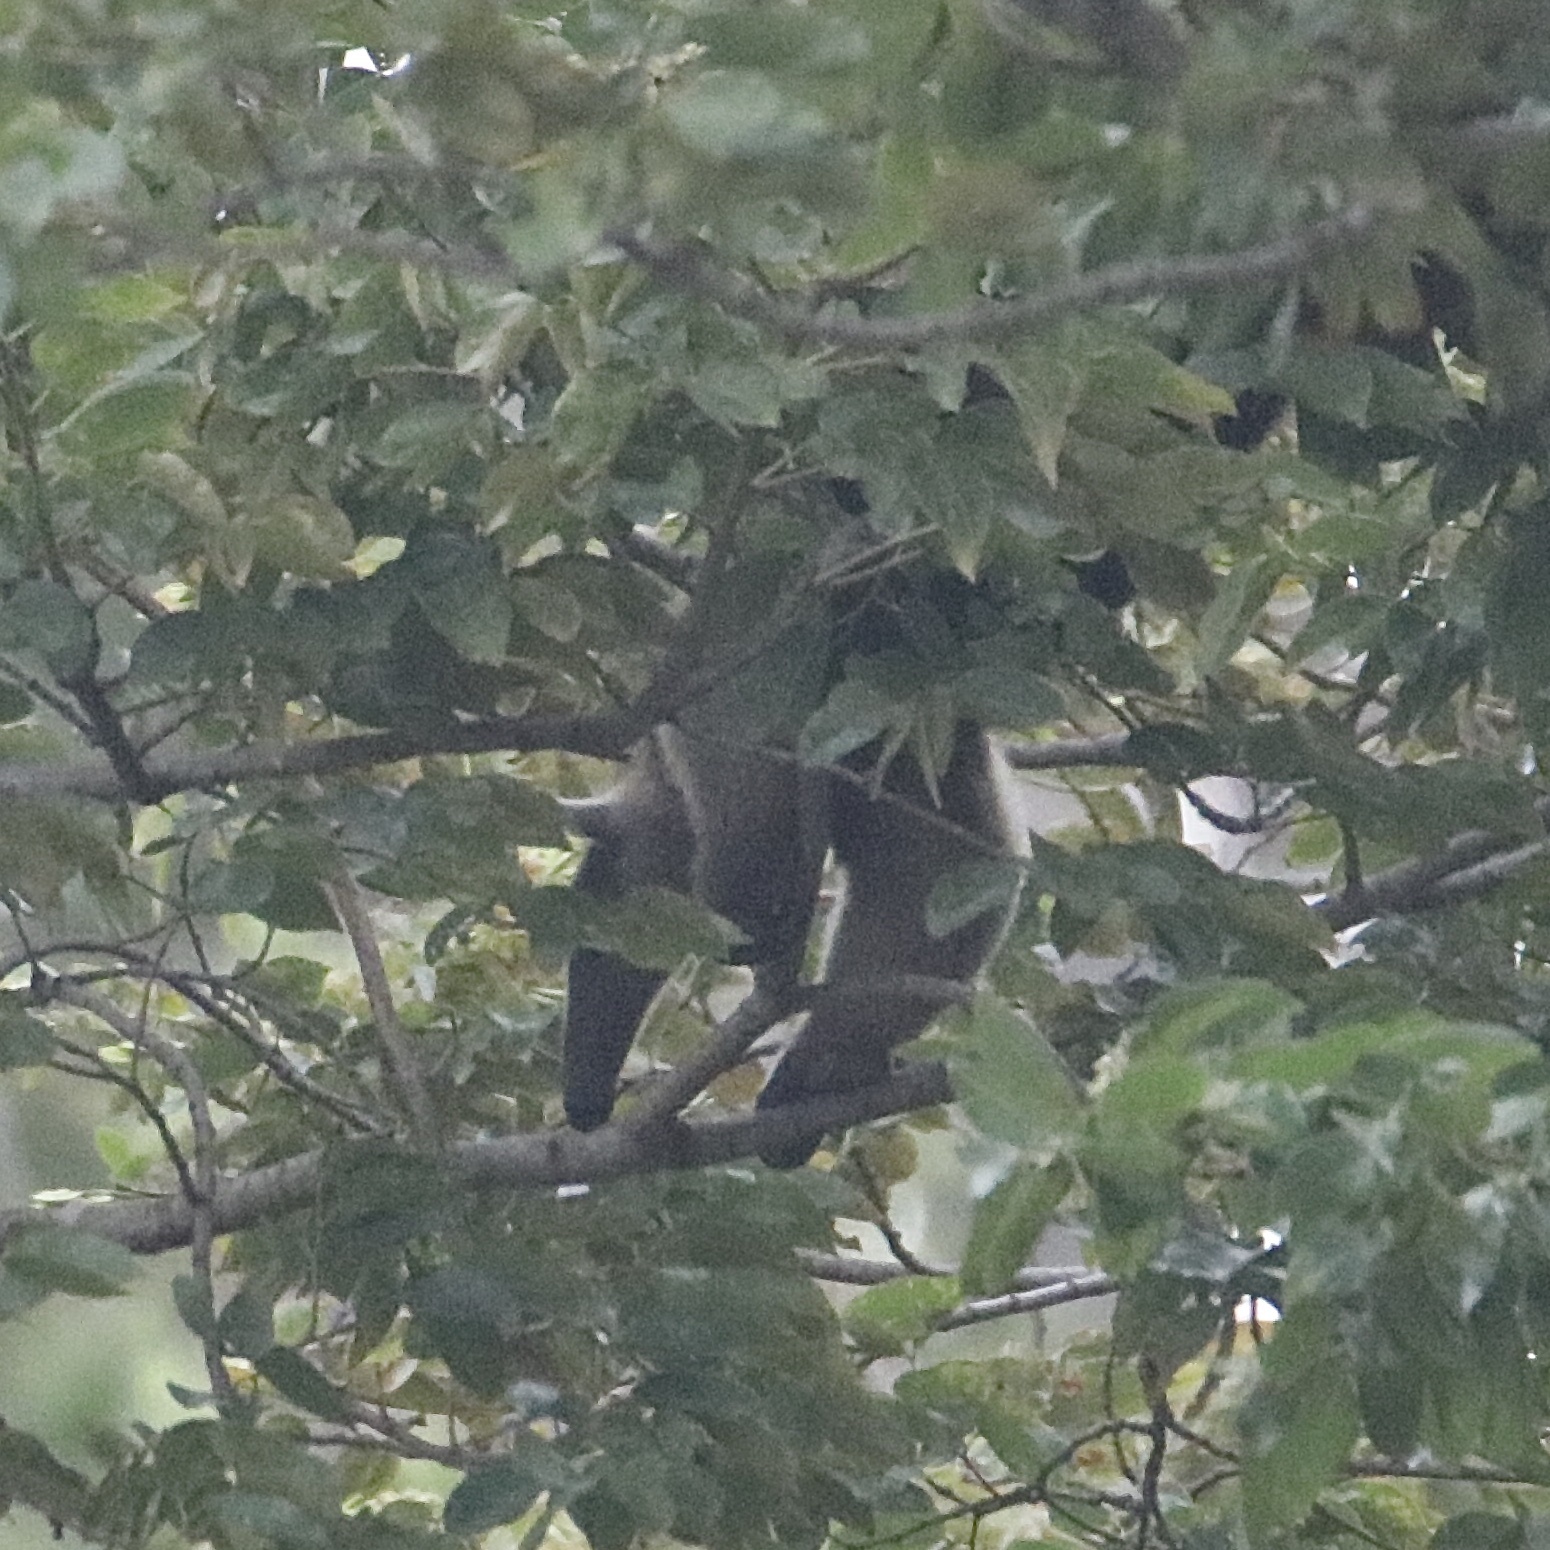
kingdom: Animalia
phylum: Chordata
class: Mammalia
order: Pilosa
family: Myrmecophagidae
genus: Tamandua
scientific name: Tamandua mexicana
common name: Northern tamandua
